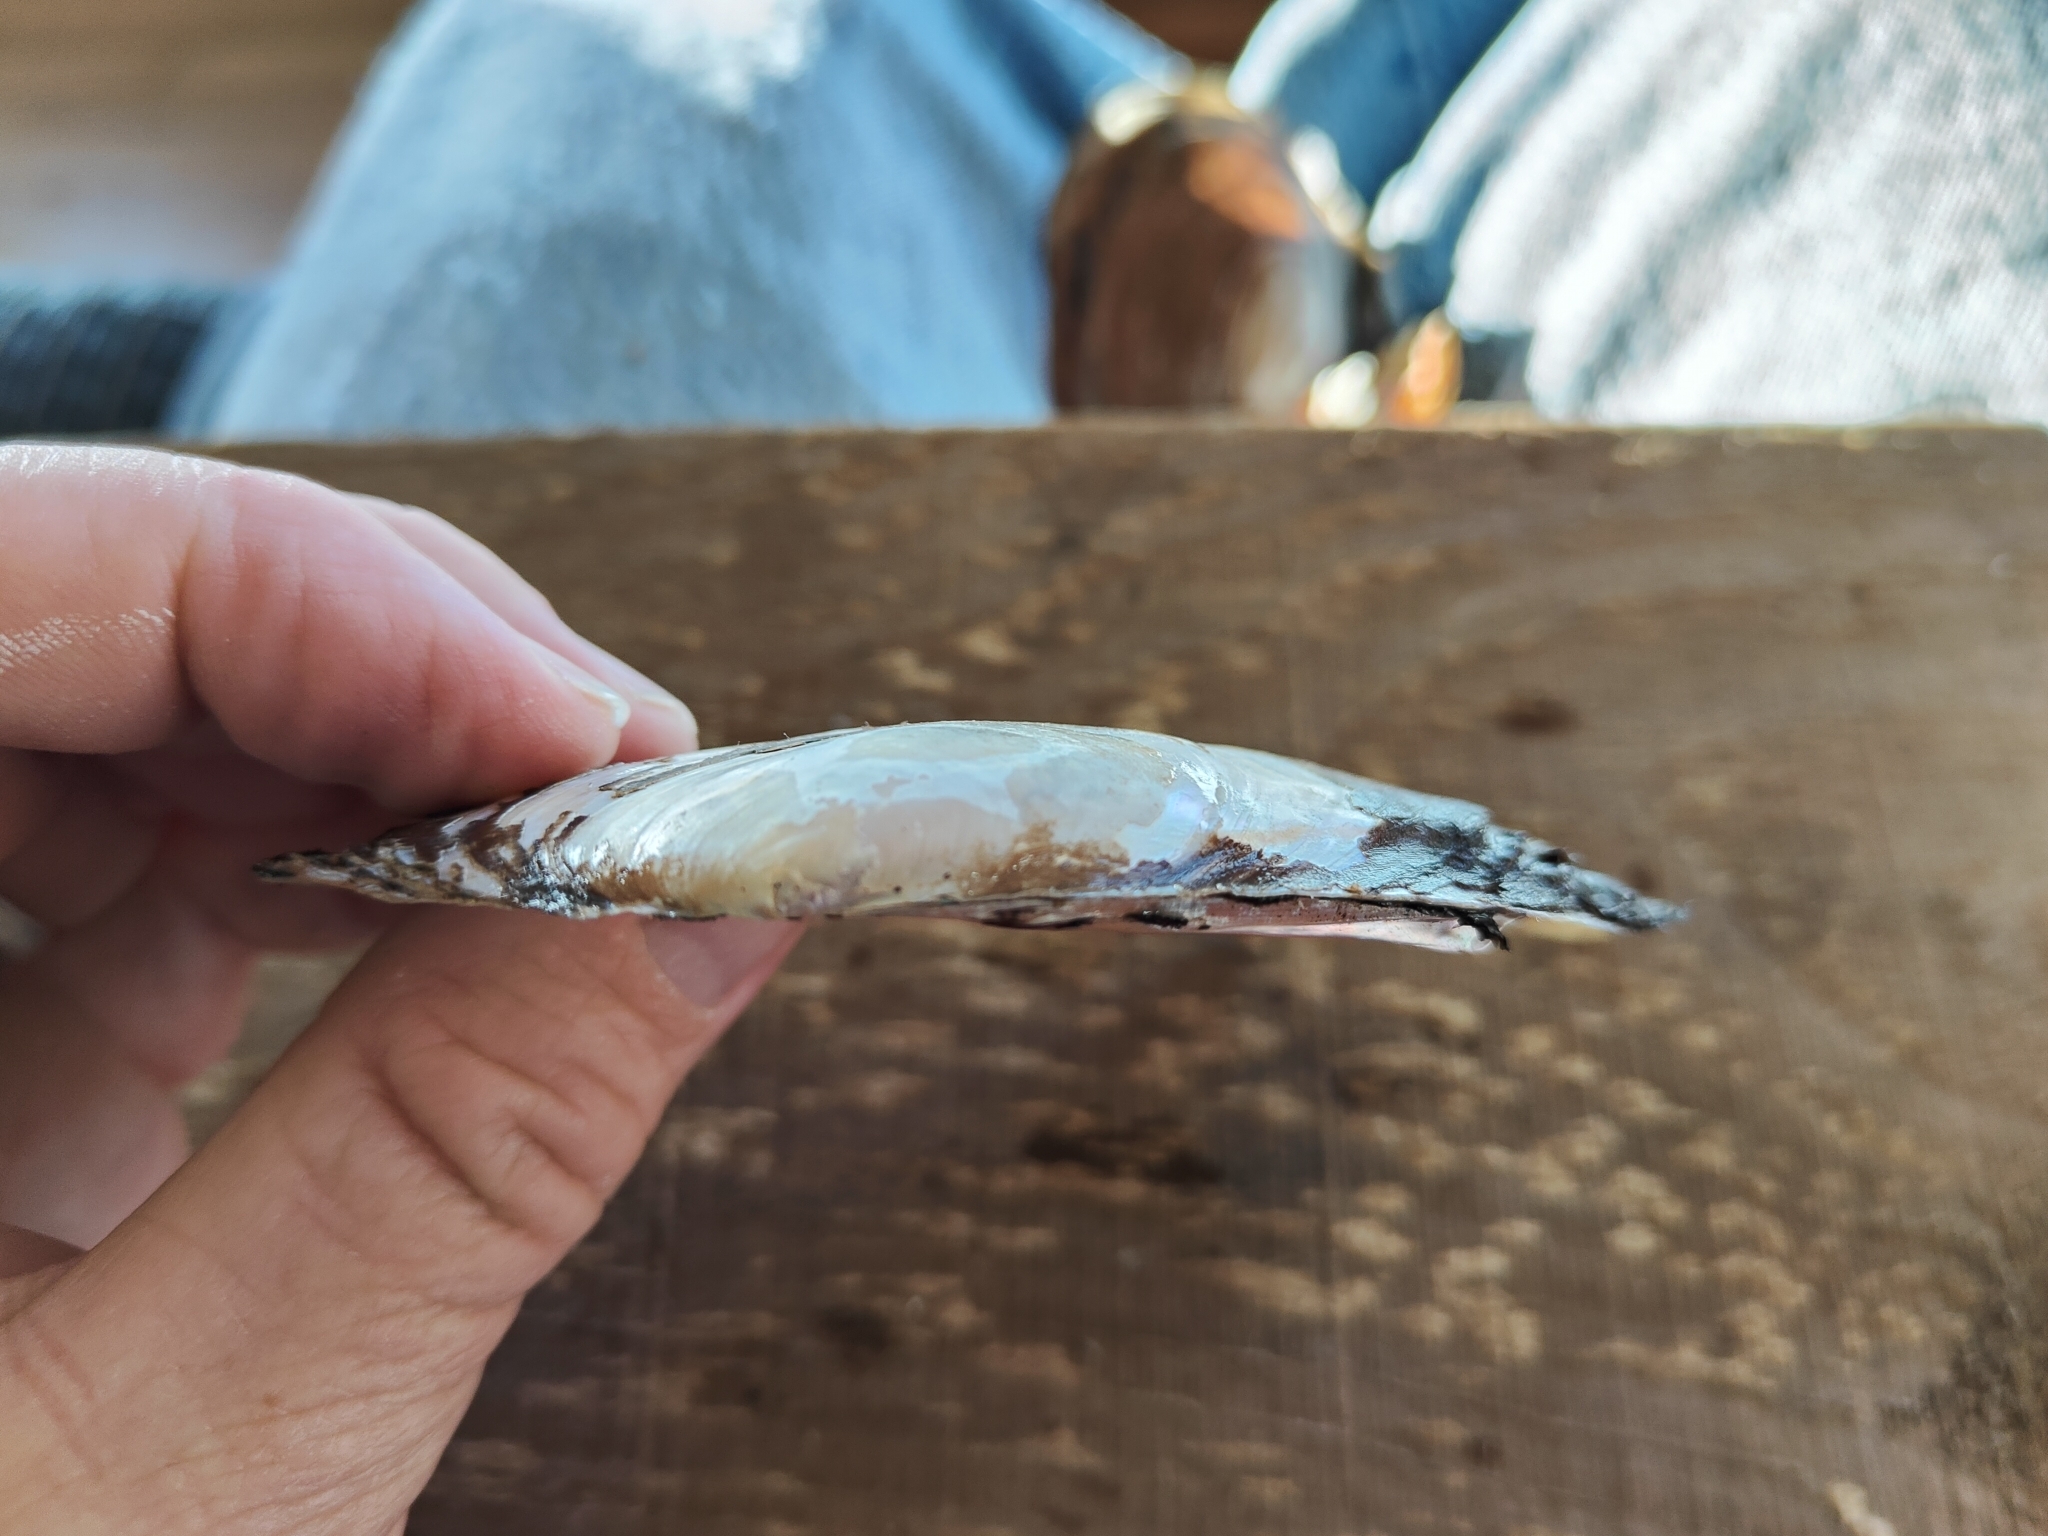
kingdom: Animalia
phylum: Mollusca
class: Bivalvia
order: Unionida
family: Unionidae
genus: Potamilus
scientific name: Potamilus ohiensis
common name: Pink papershell
